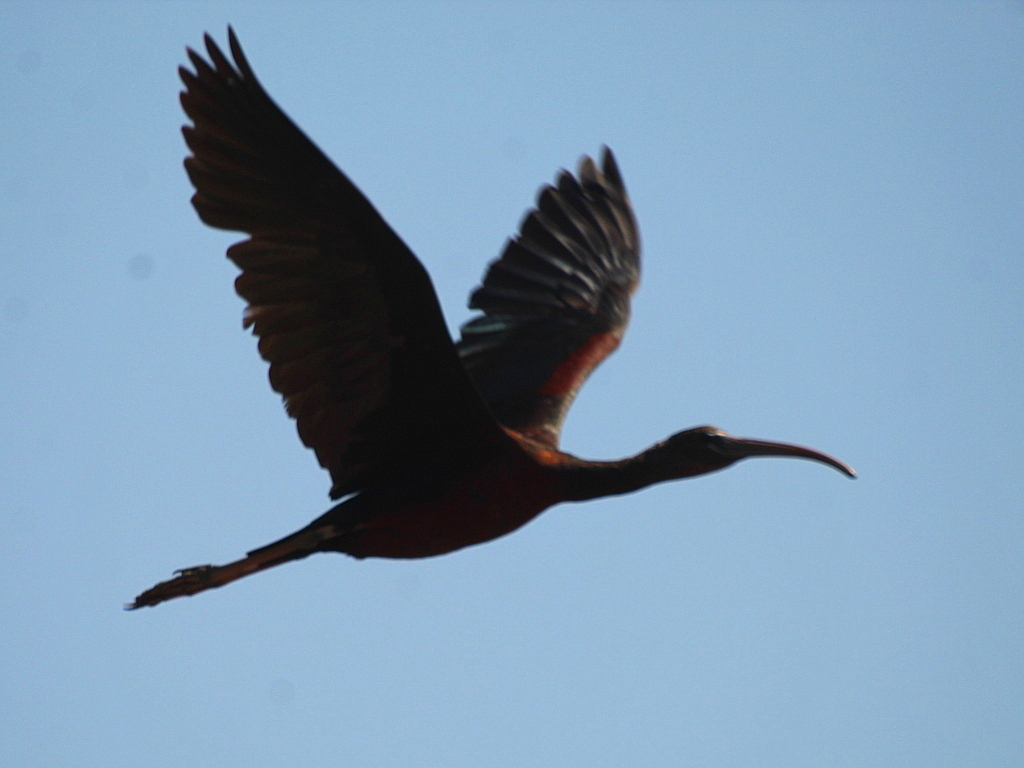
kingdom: Animalia
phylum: Chordata
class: Aves
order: Pelecaniformes
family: Threskiornithidae
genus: Plegadis
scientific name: Plegadis falcinellus
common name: Glossy ibis
